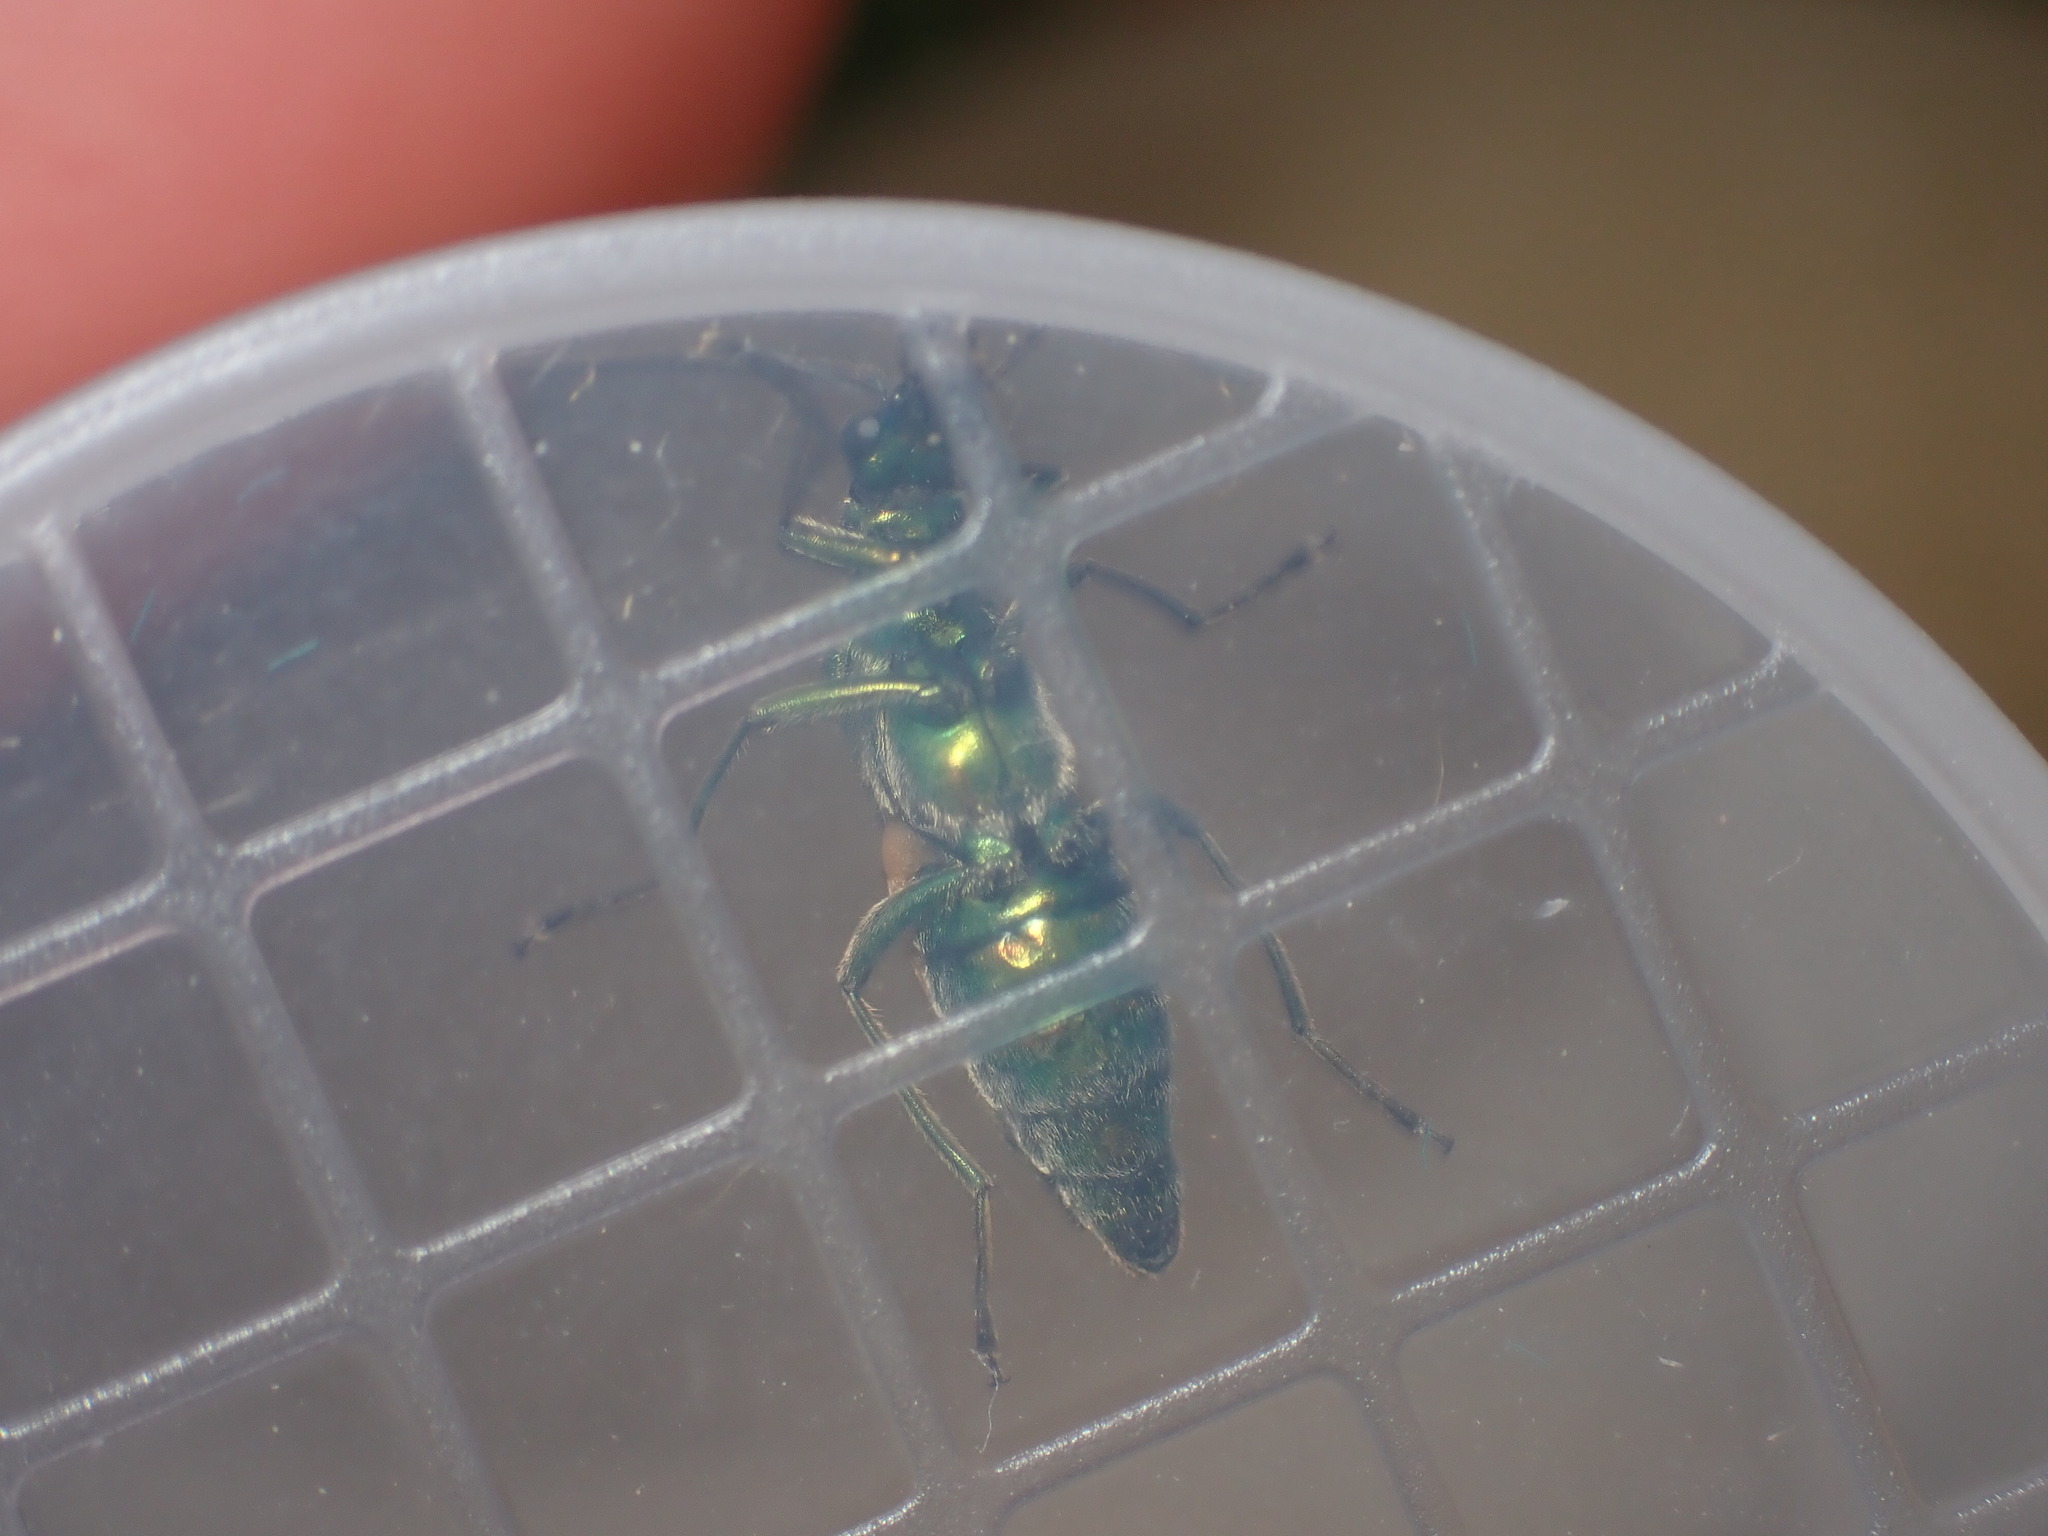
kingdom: Animalia
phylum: Arthropoda
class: Insecta
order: Coleoptera
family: Oedemeridae
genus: Oedemera
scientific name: Oedemera nobilis
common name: Swollen-thighed beetle
